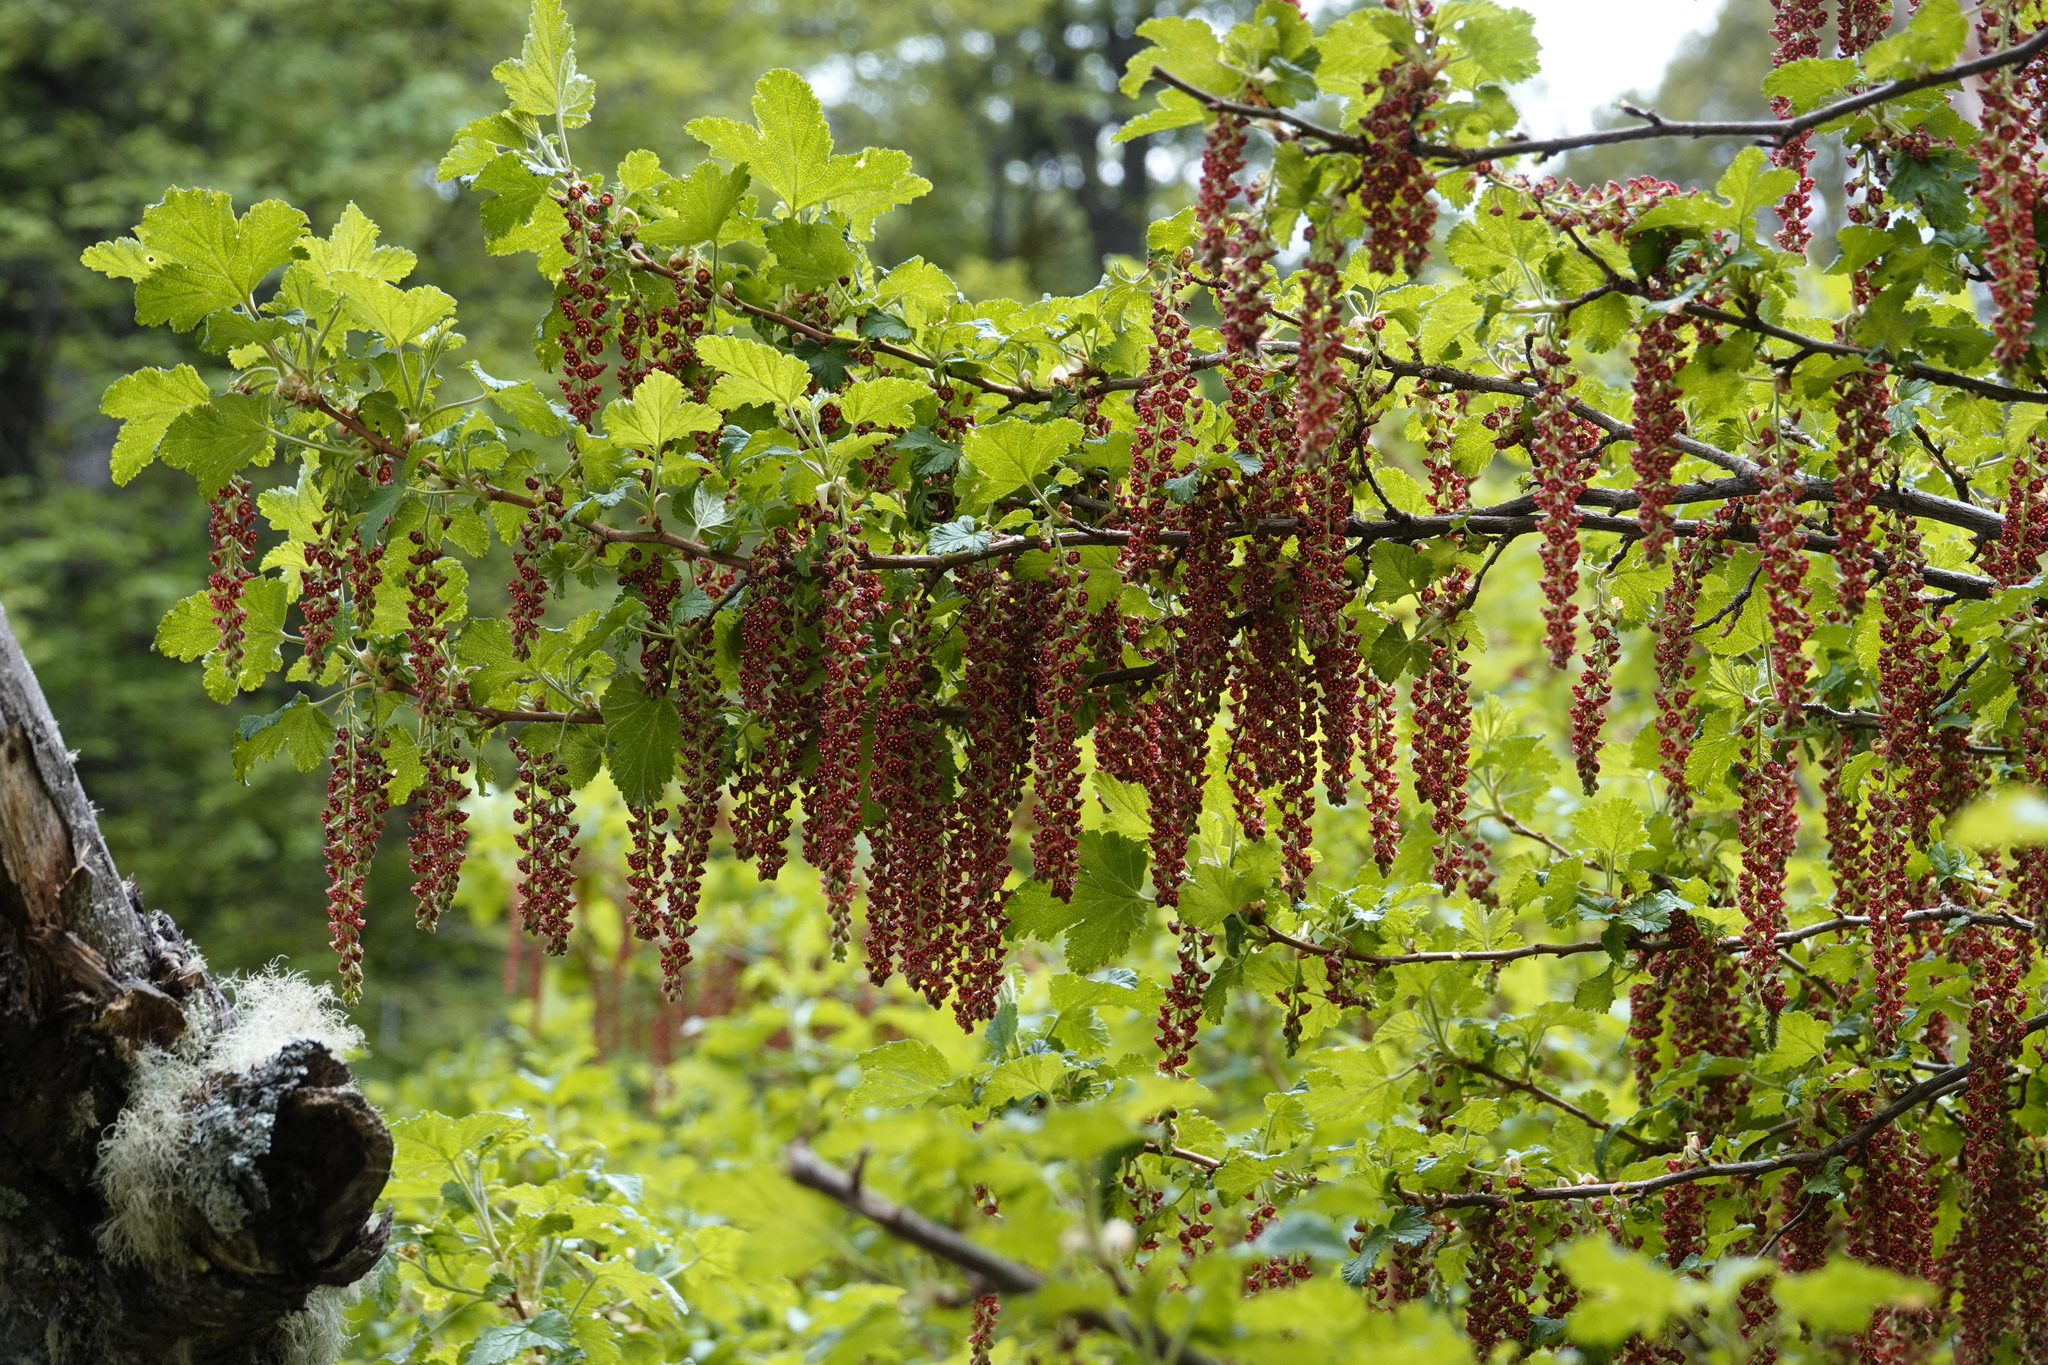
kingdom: Plantae
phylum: Tracheophyta
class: Magnoliopsida
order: Saxifragales
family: Grossulariaceae
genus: Ribes
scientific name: Ribes magellanicum
